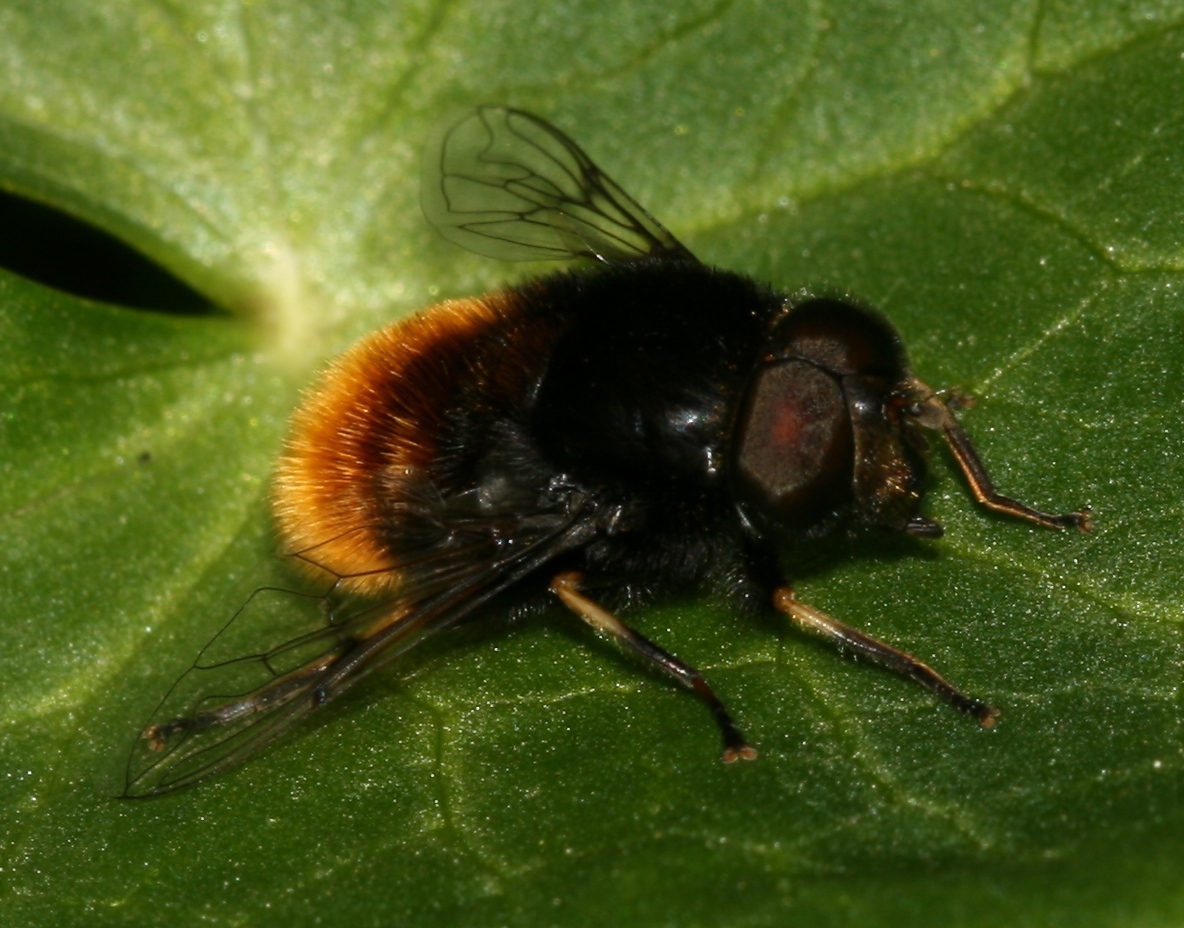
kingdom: Animalia
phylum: Arthropoda
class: Insecta
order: Diptera
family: Syrphidae
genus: Eristalis
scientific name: Eristalis intricaria
